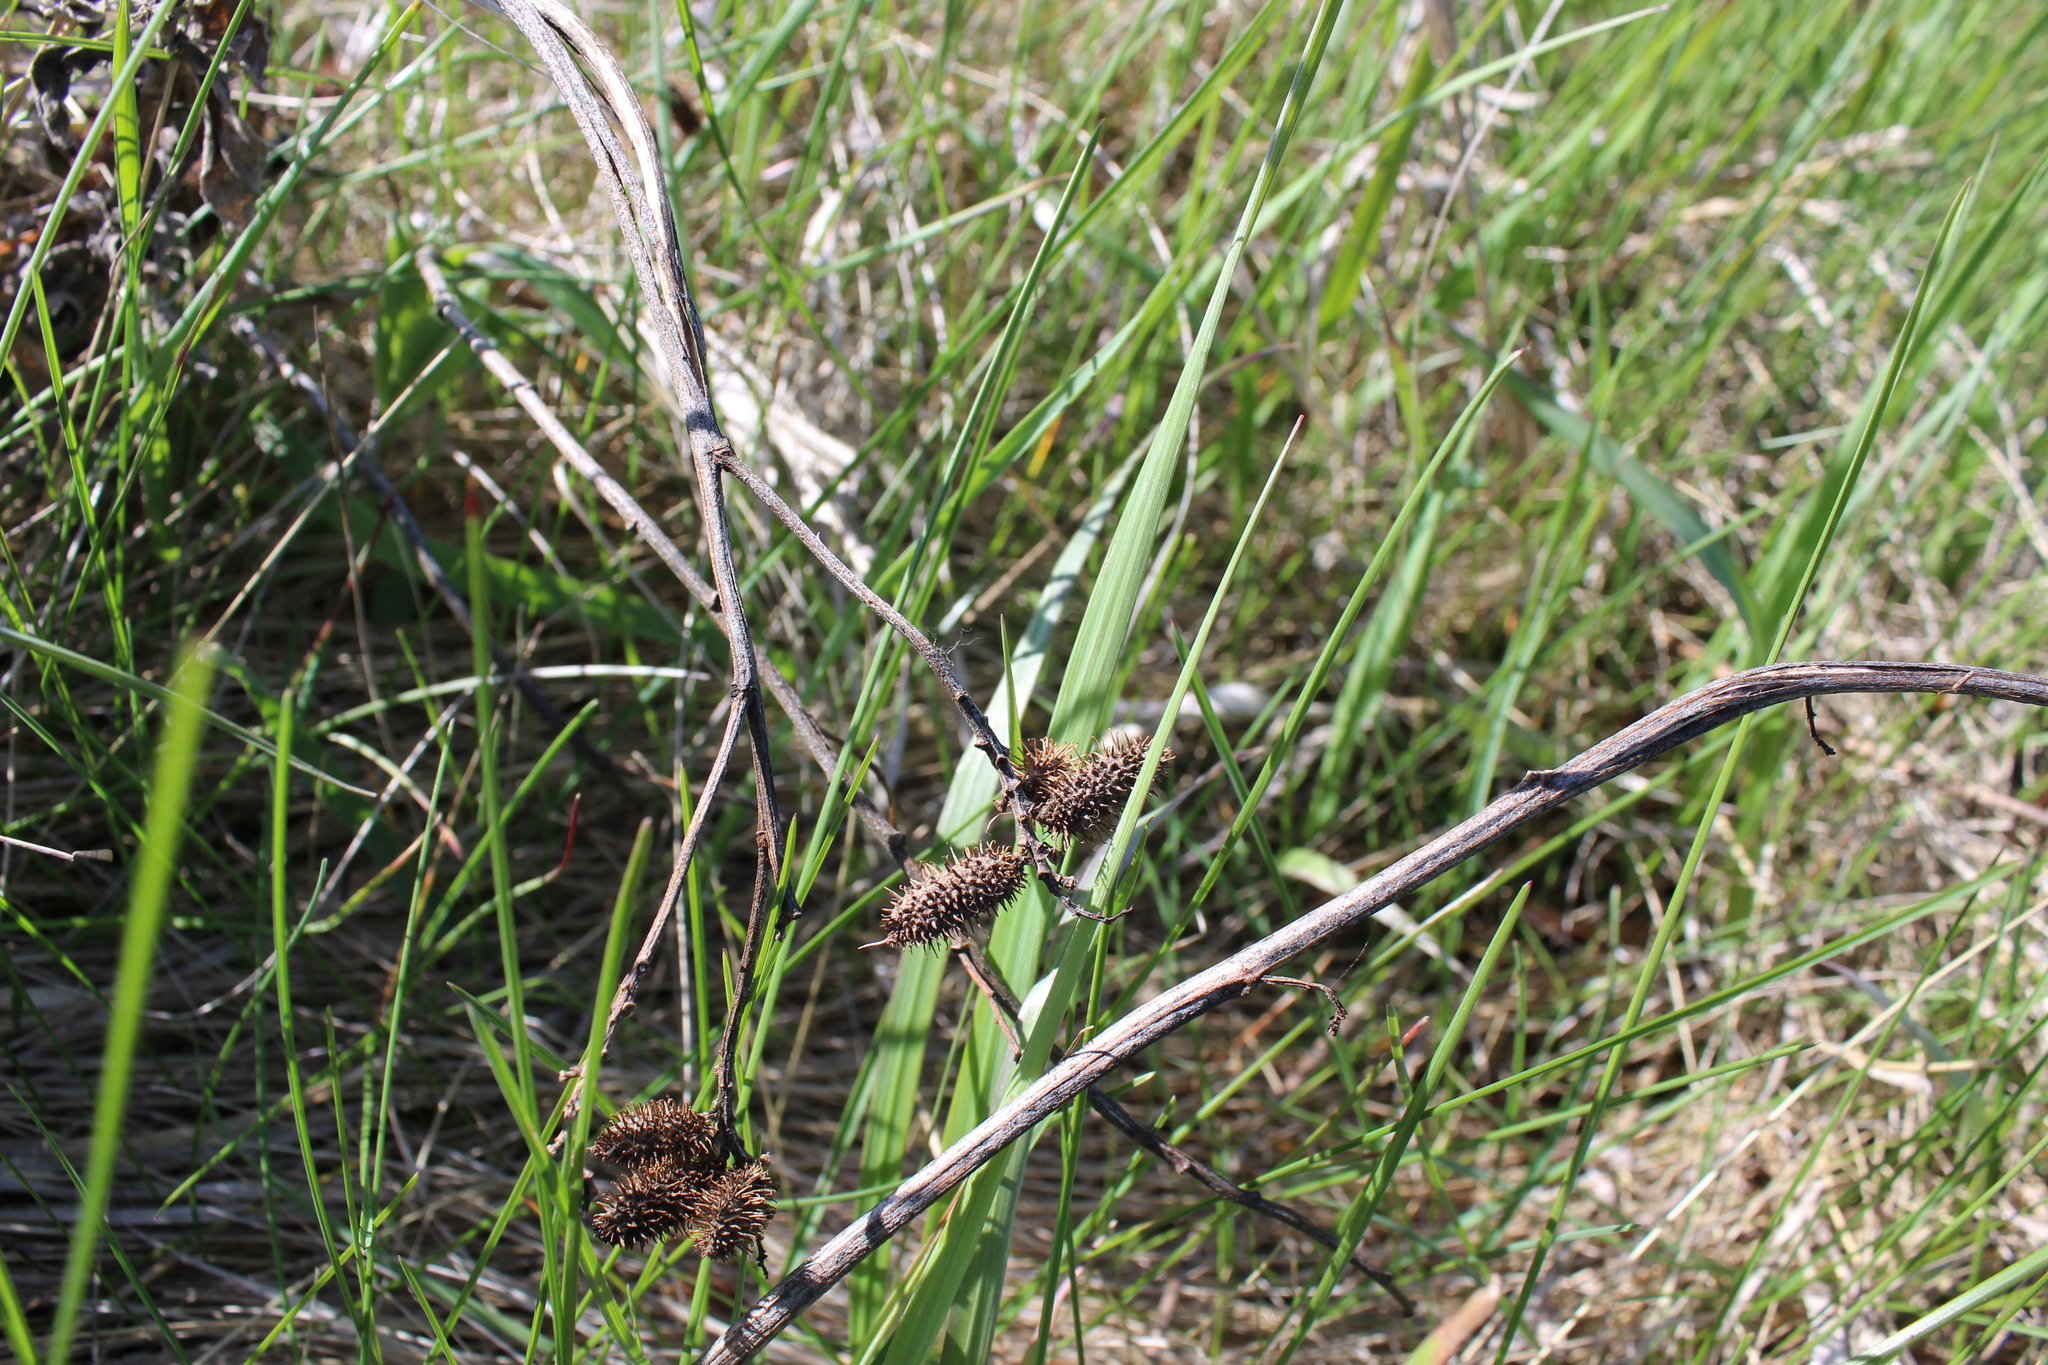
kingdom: Plantae
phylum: Tracheophyta
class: Magnoliopsida
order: Fabales
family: Fabaceae
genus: Glycyrrhiza
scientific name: Glycyrrhiza lepidota
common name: American liquorice
